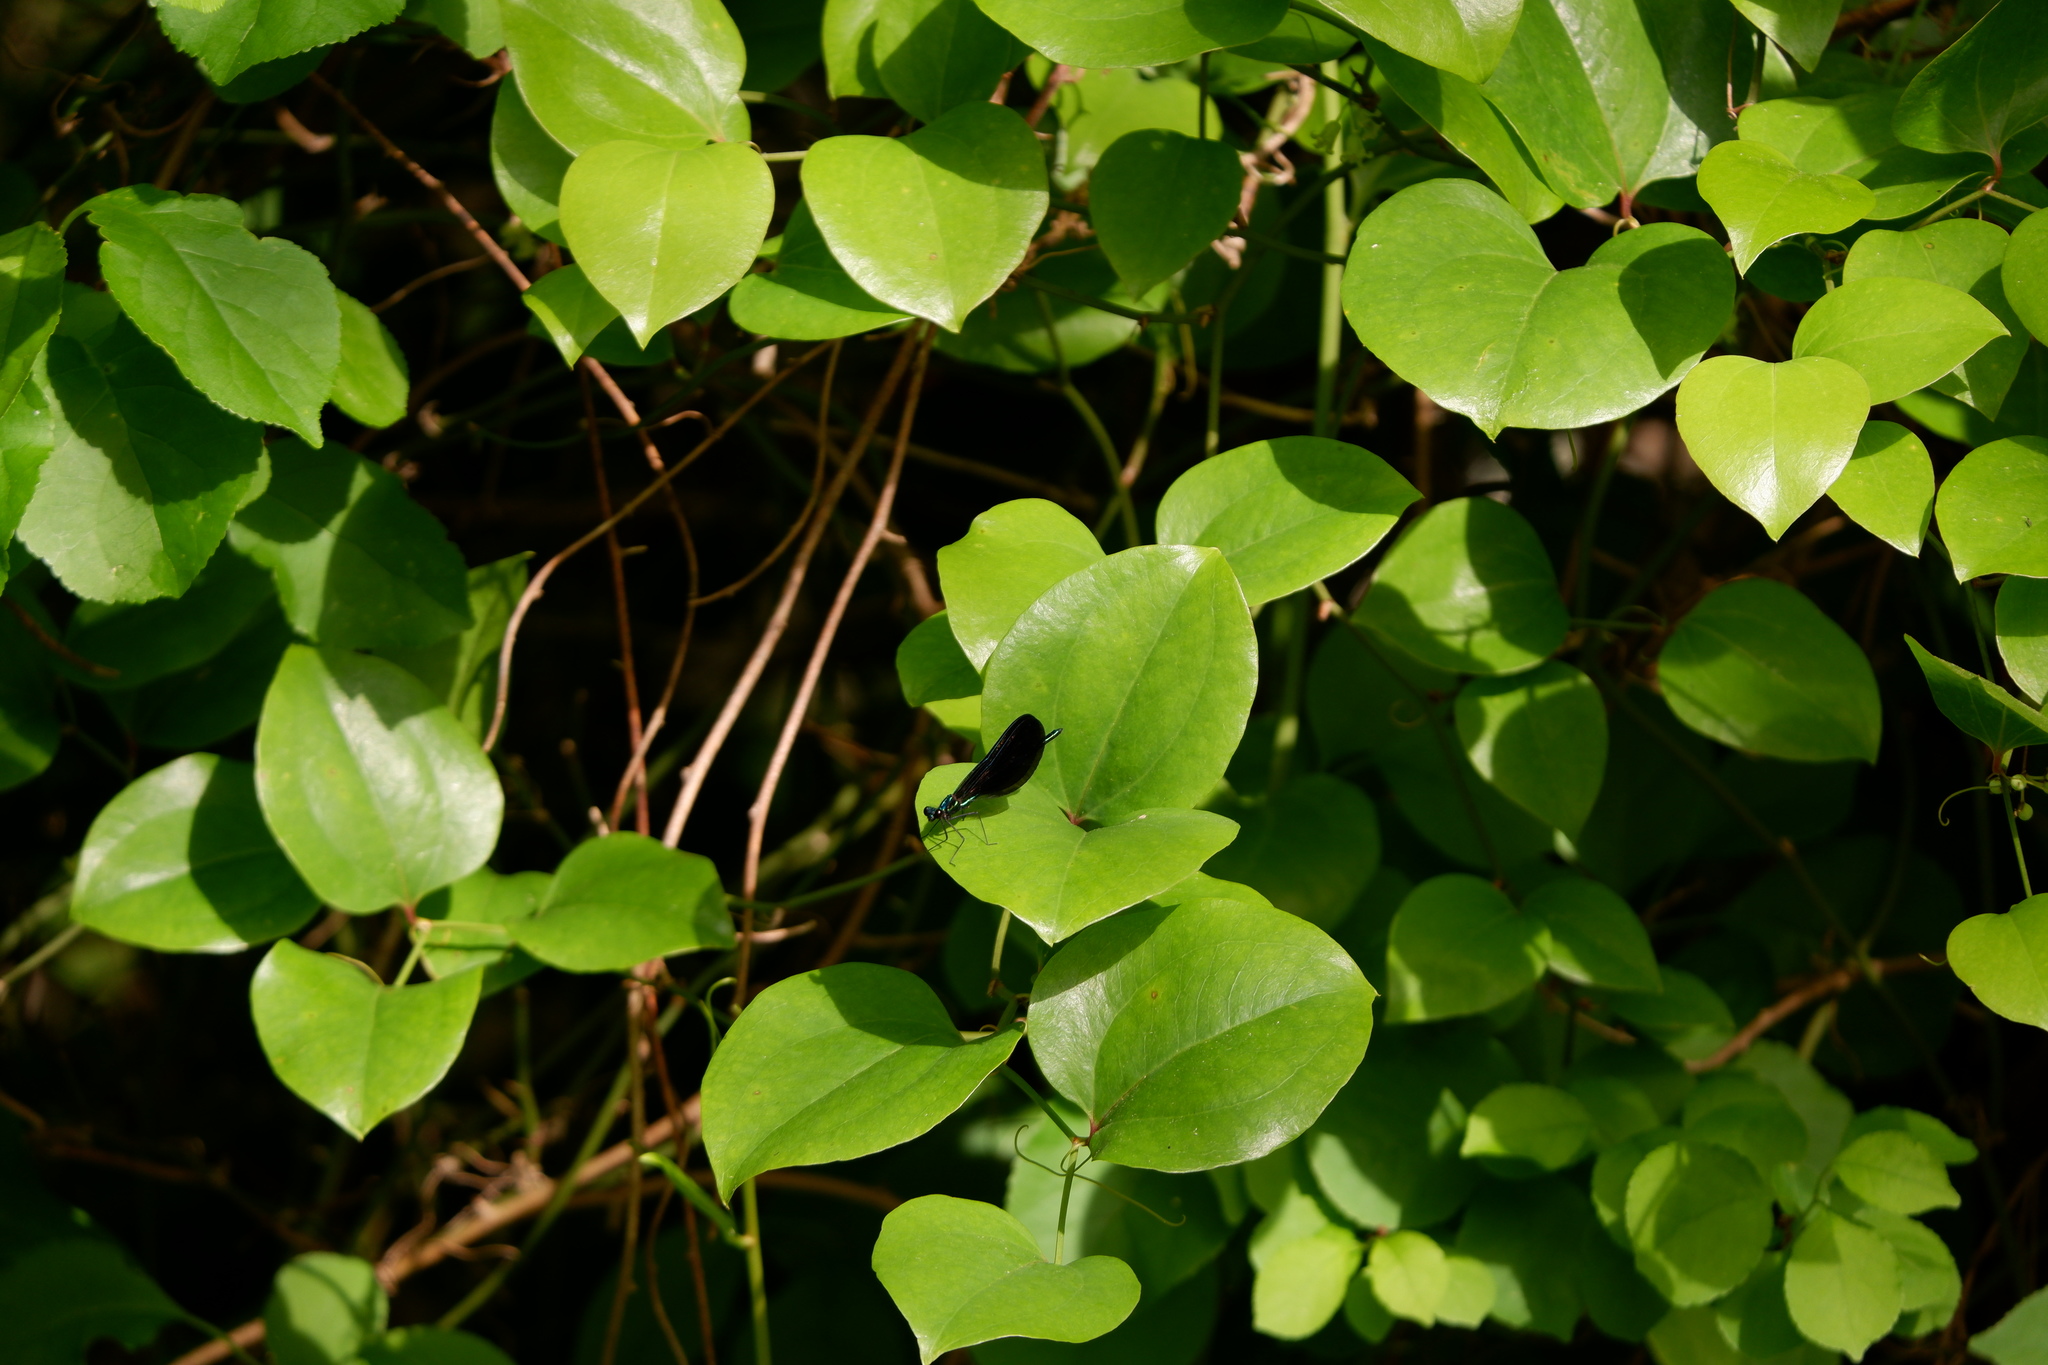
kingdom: Animalia
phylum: Arthropoda
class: Insecta
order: Odonata
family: Calopterygidae
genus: Calopteryx
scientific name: Calopteryx maculata
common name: Ebony jewelwing
